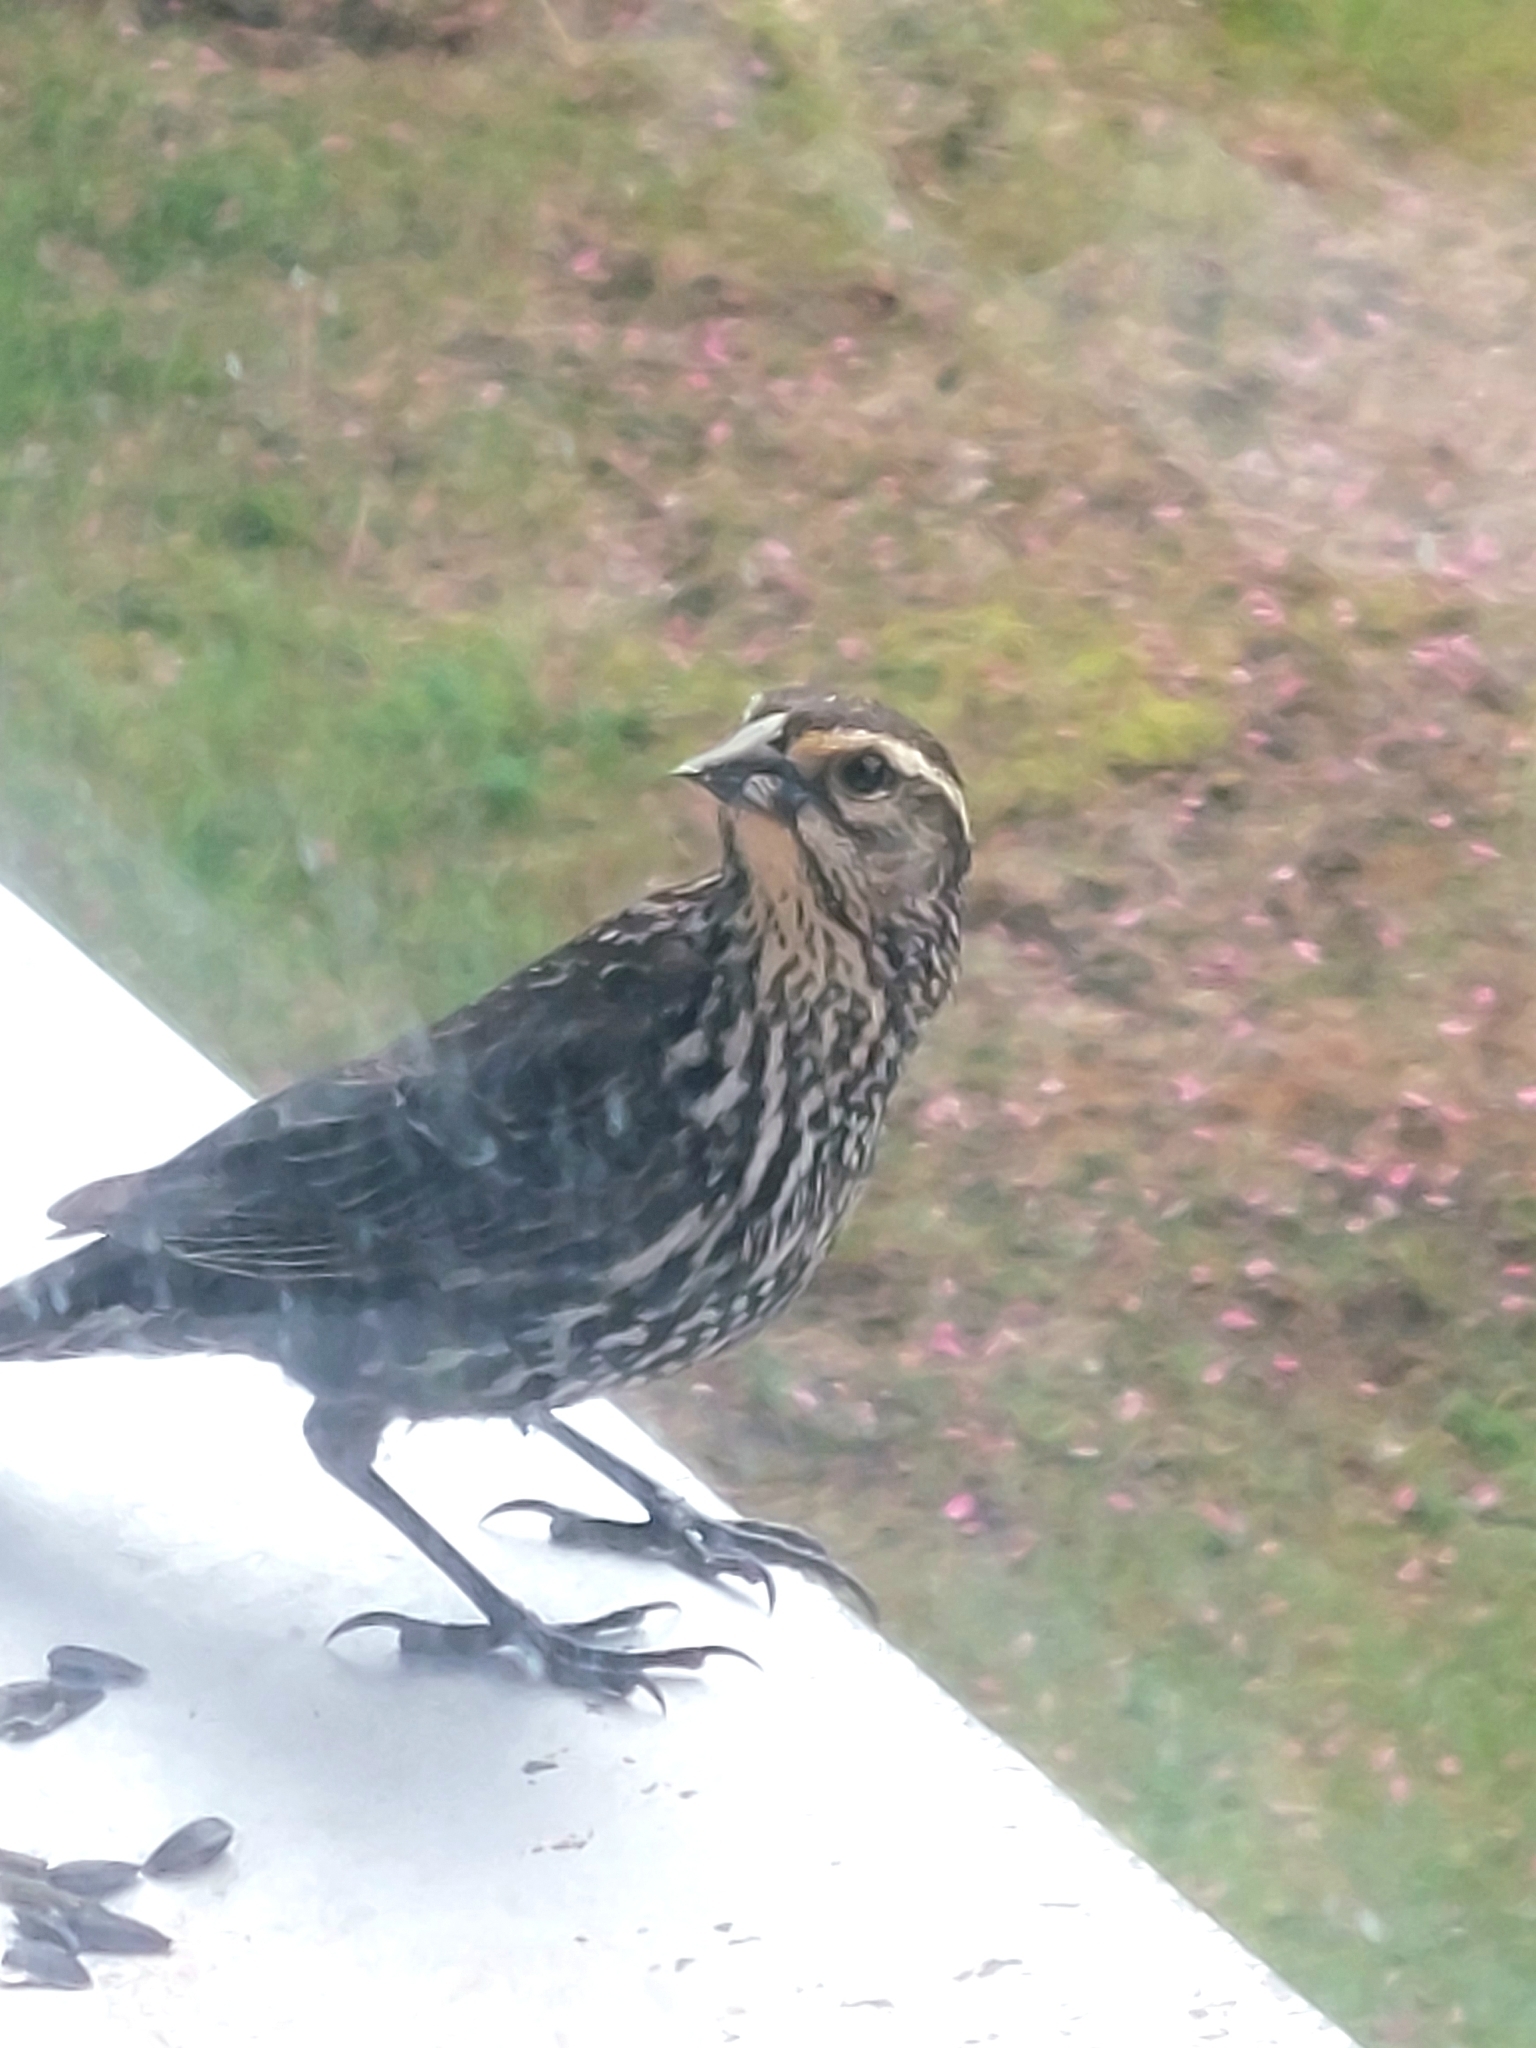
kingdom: Animalia
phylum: Chordata
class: Aves
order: Passeriformes
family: Icteridae
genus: Agelaius
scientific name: Agelaius phoeniceus
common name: Red-winged blackbird
